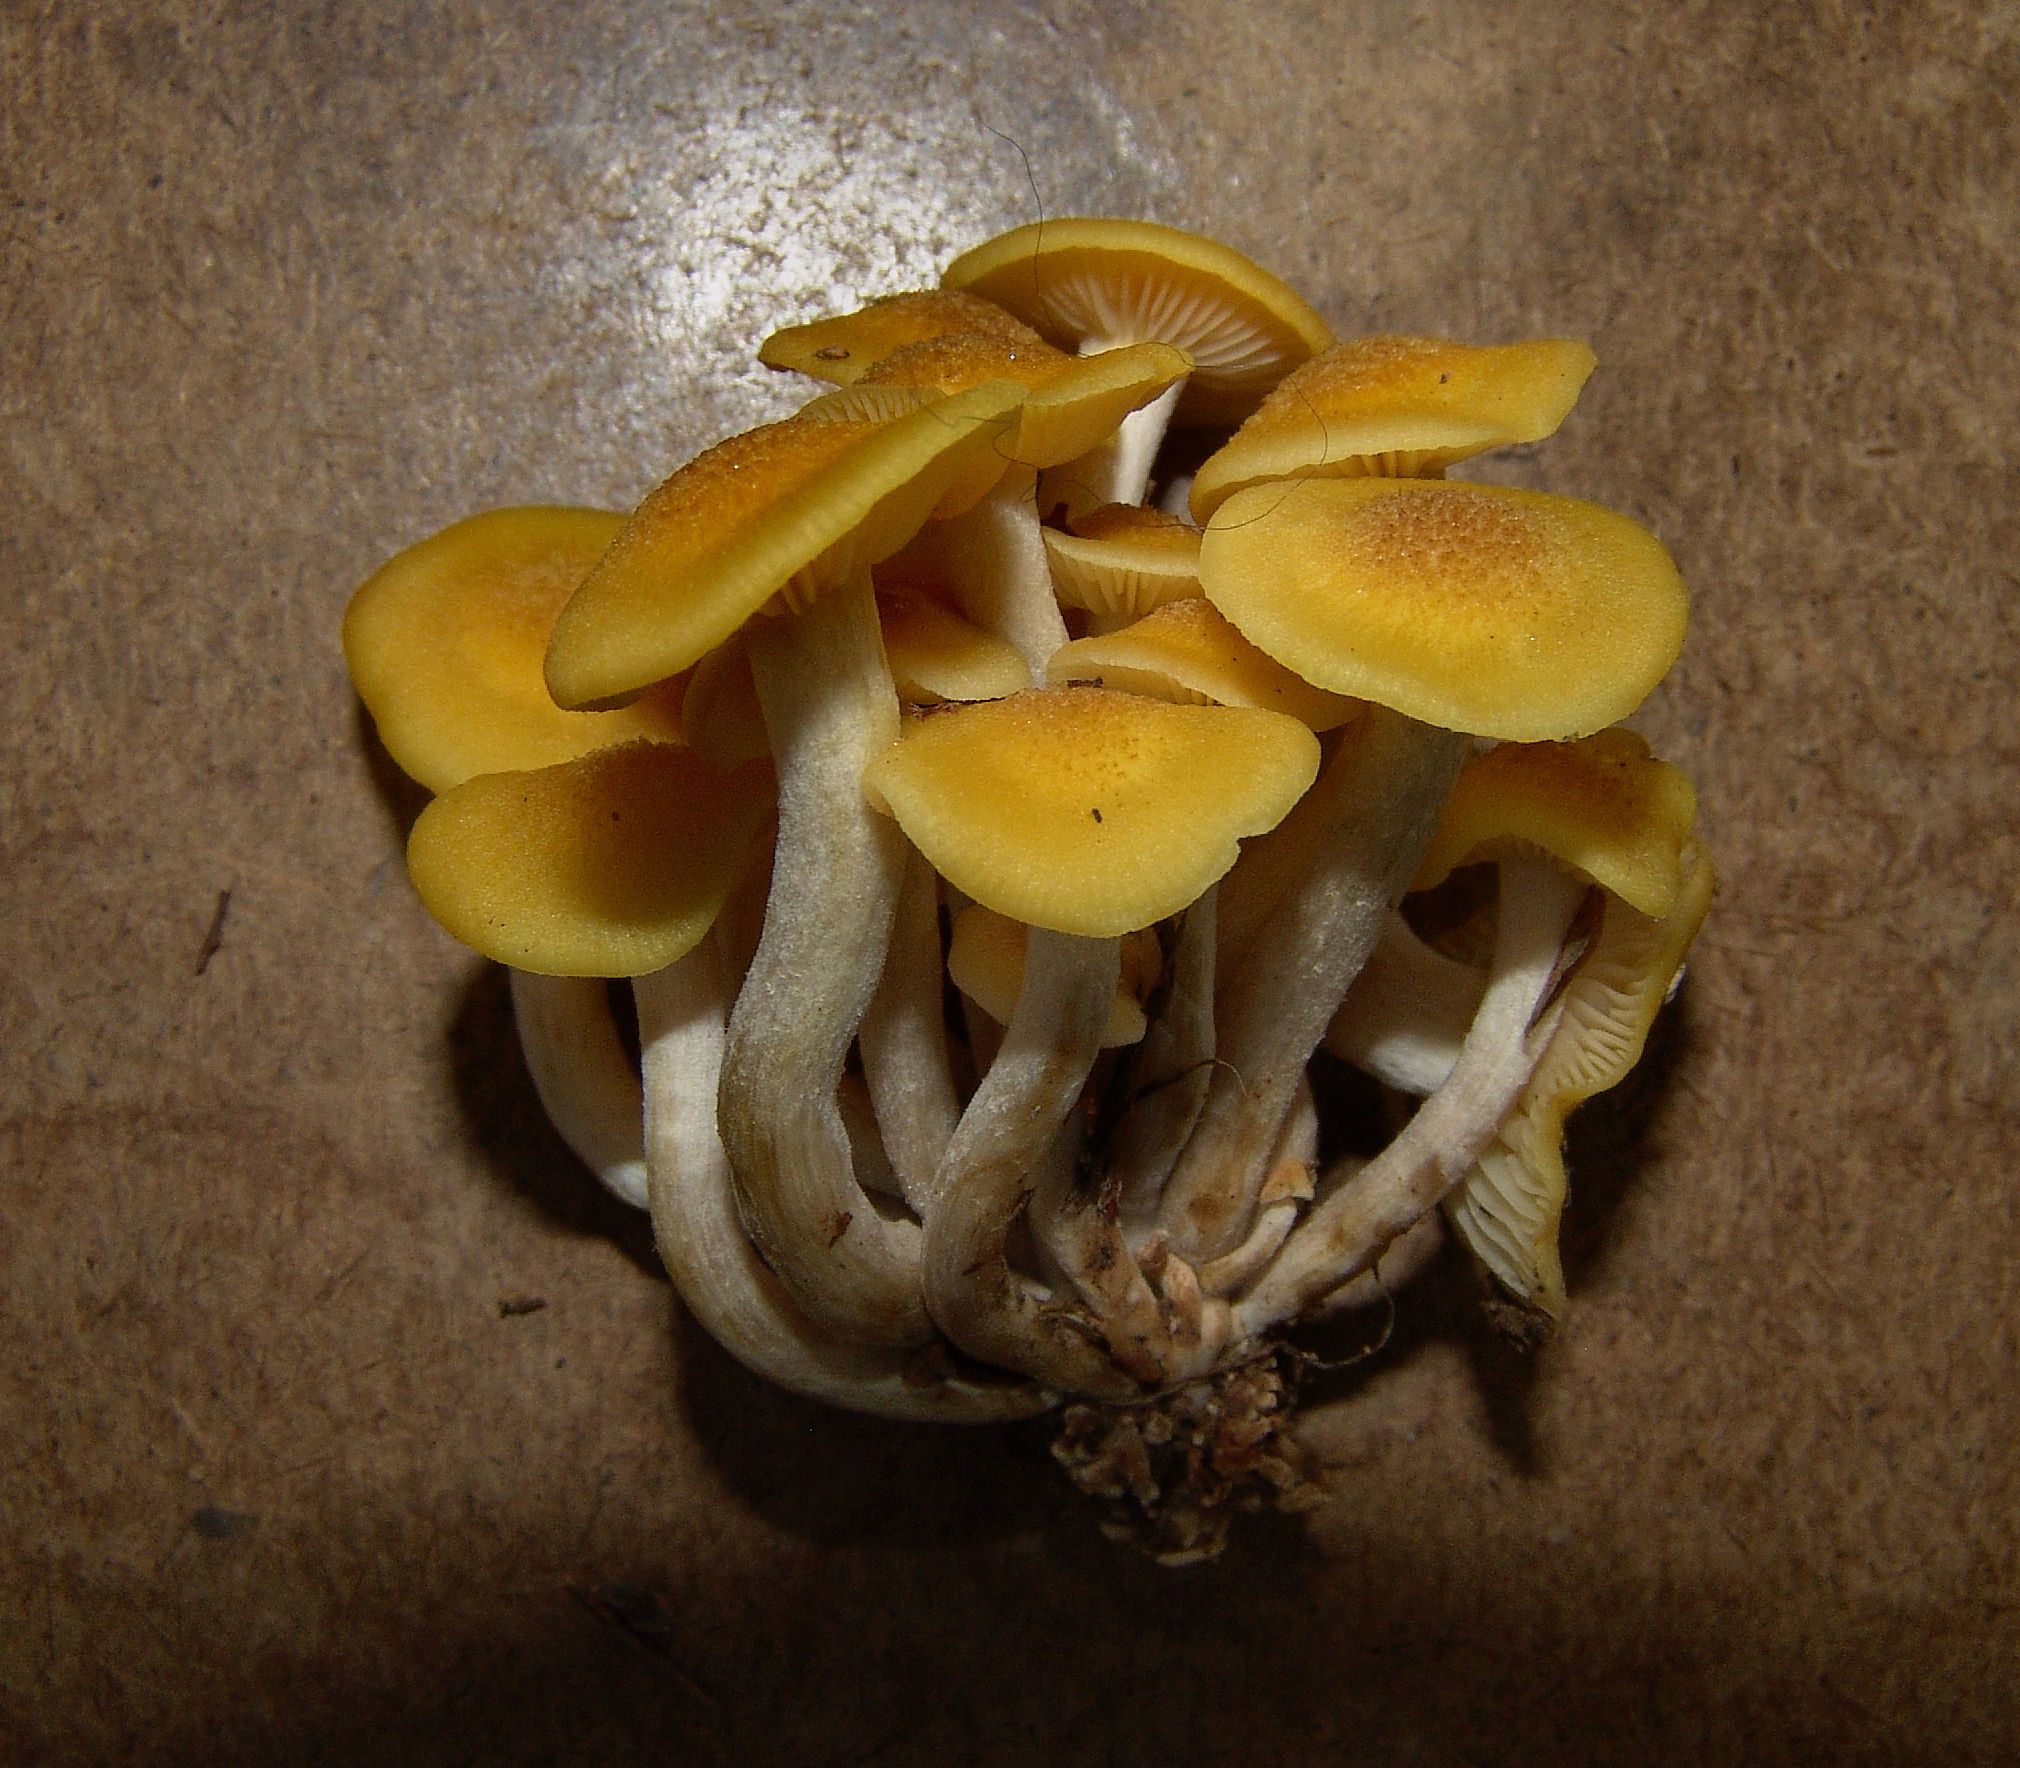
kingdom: Fungi
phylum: Basidiomycota
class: Agaricomycetes
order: Agaricales
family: Physalacriaceae
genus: Desarmillaria
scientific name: Desarmillaria caespitosa
